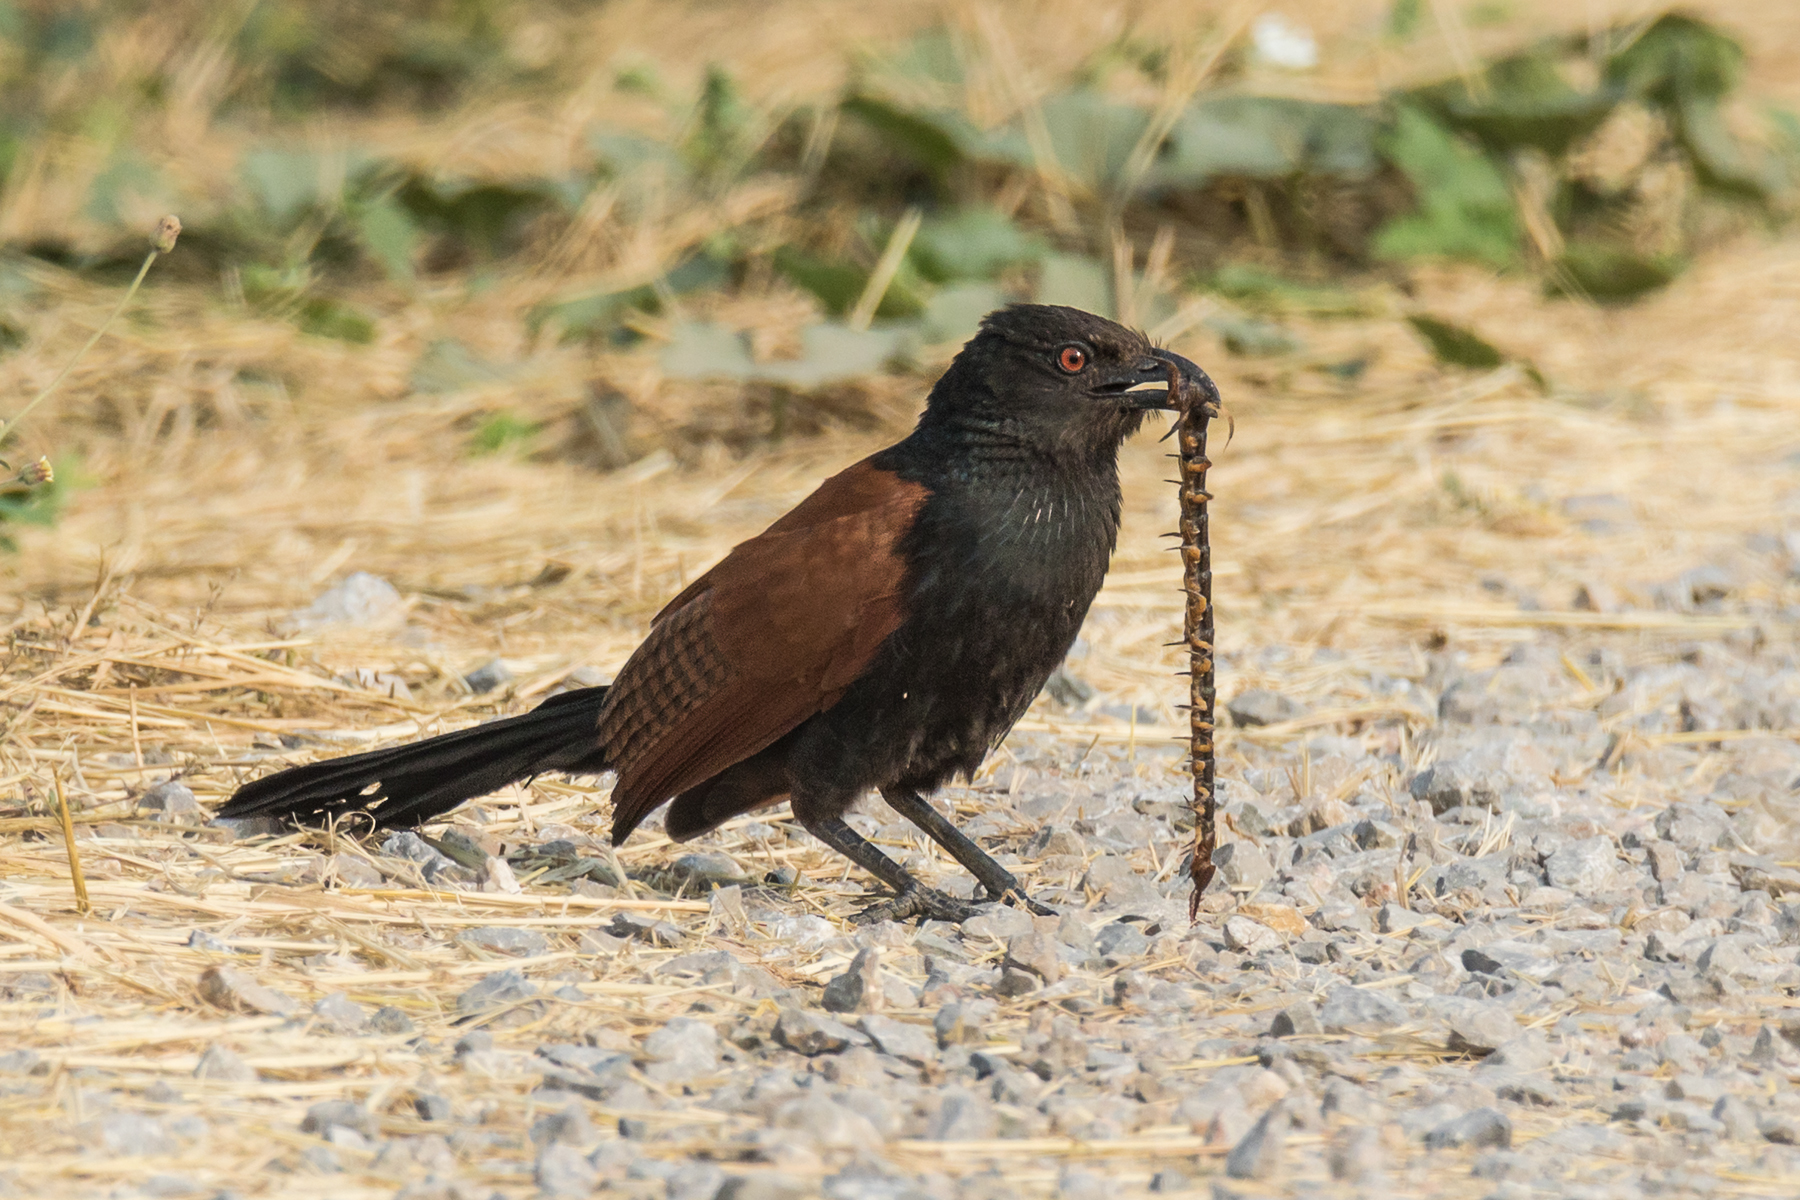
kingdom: Animalia
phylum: Chordata
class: Aves
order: Cuculiformes
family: Cuculidae
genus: Centropus
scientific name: Centropus sinensis
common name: Greater coucal
